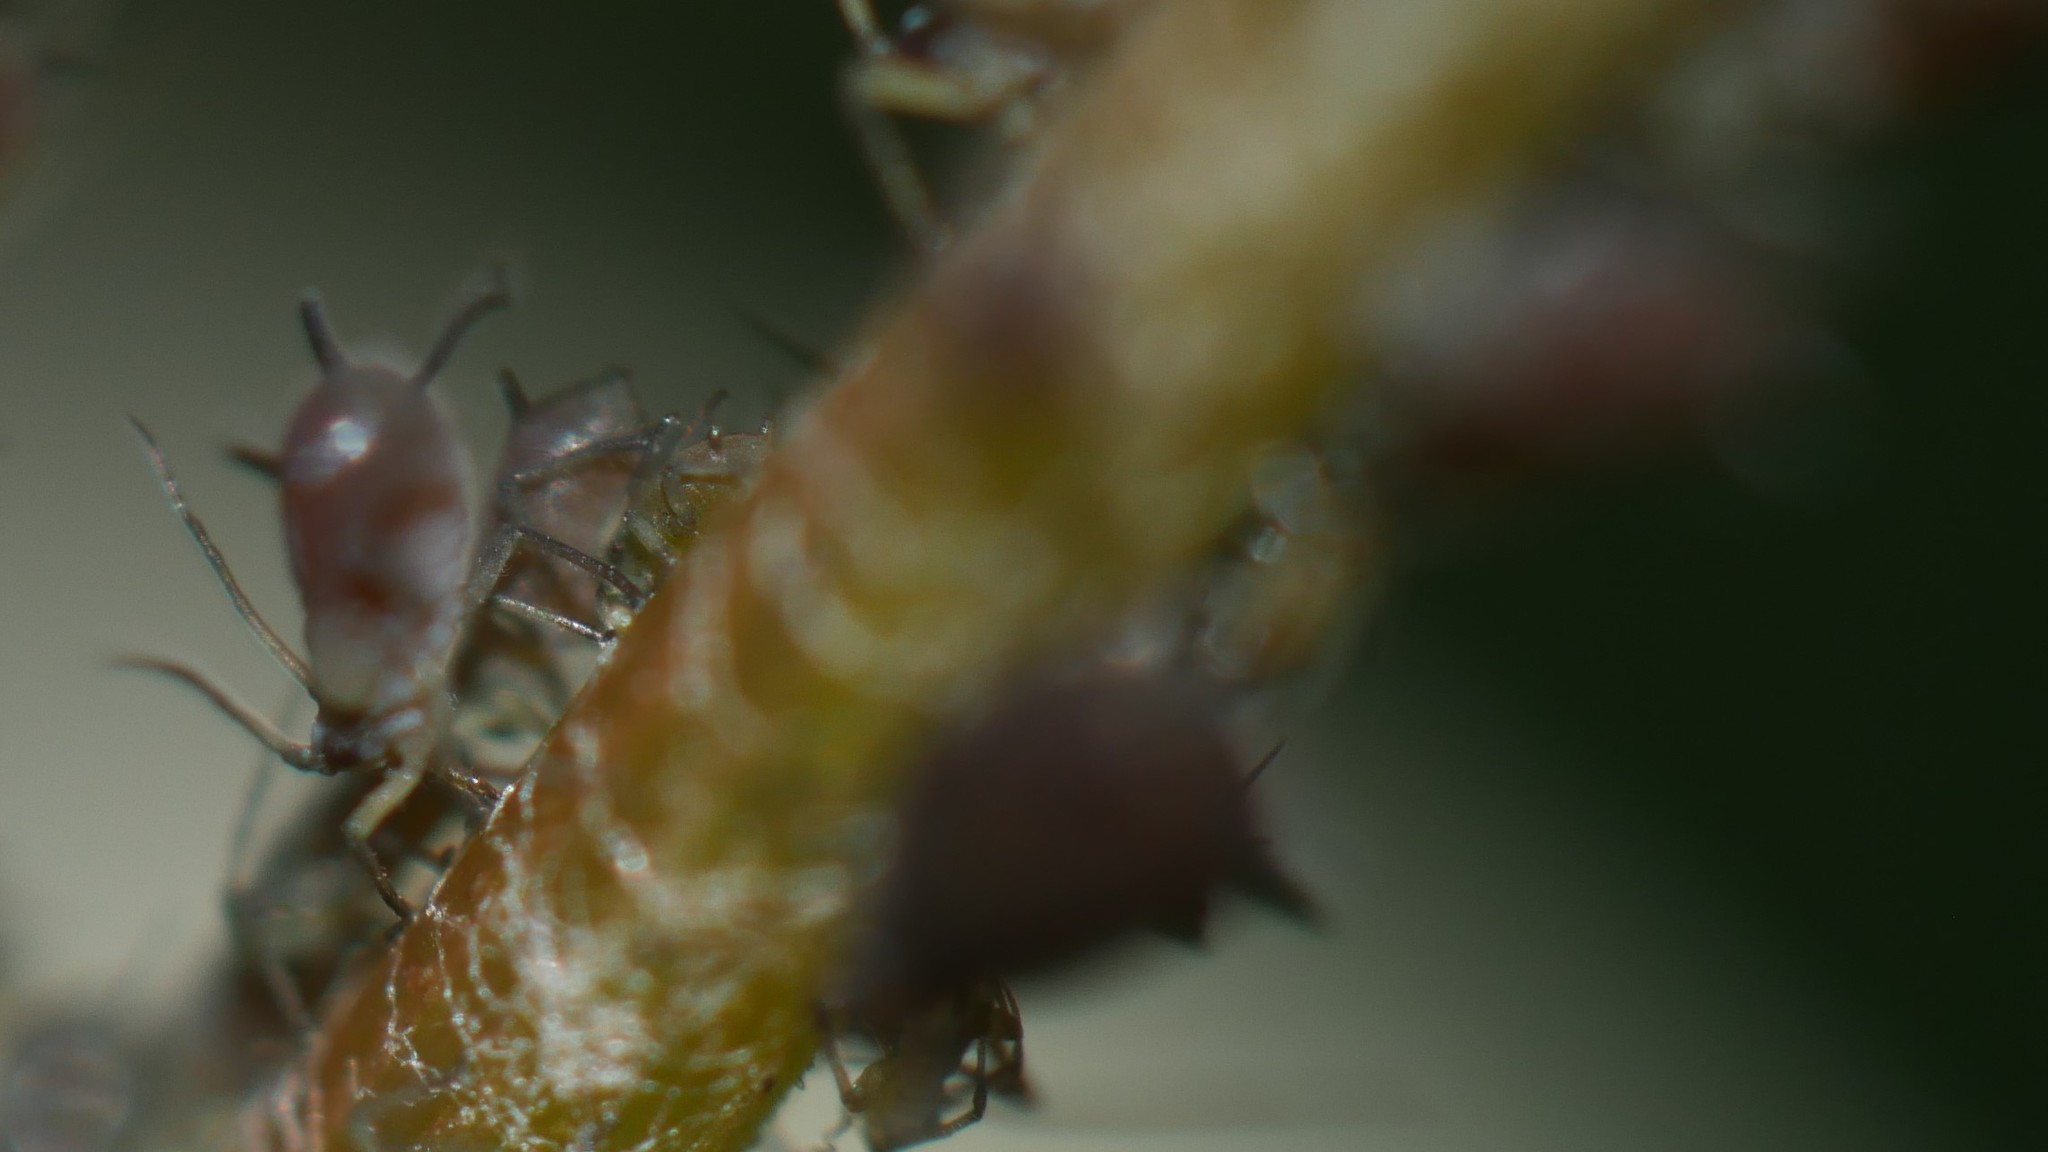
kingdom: Animalia
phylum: Arthropoda
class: Insecta
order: Hemiptera
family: Aphididae
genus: Aphis
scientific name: Aphis illinoisensis
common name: Grapevine aphid
